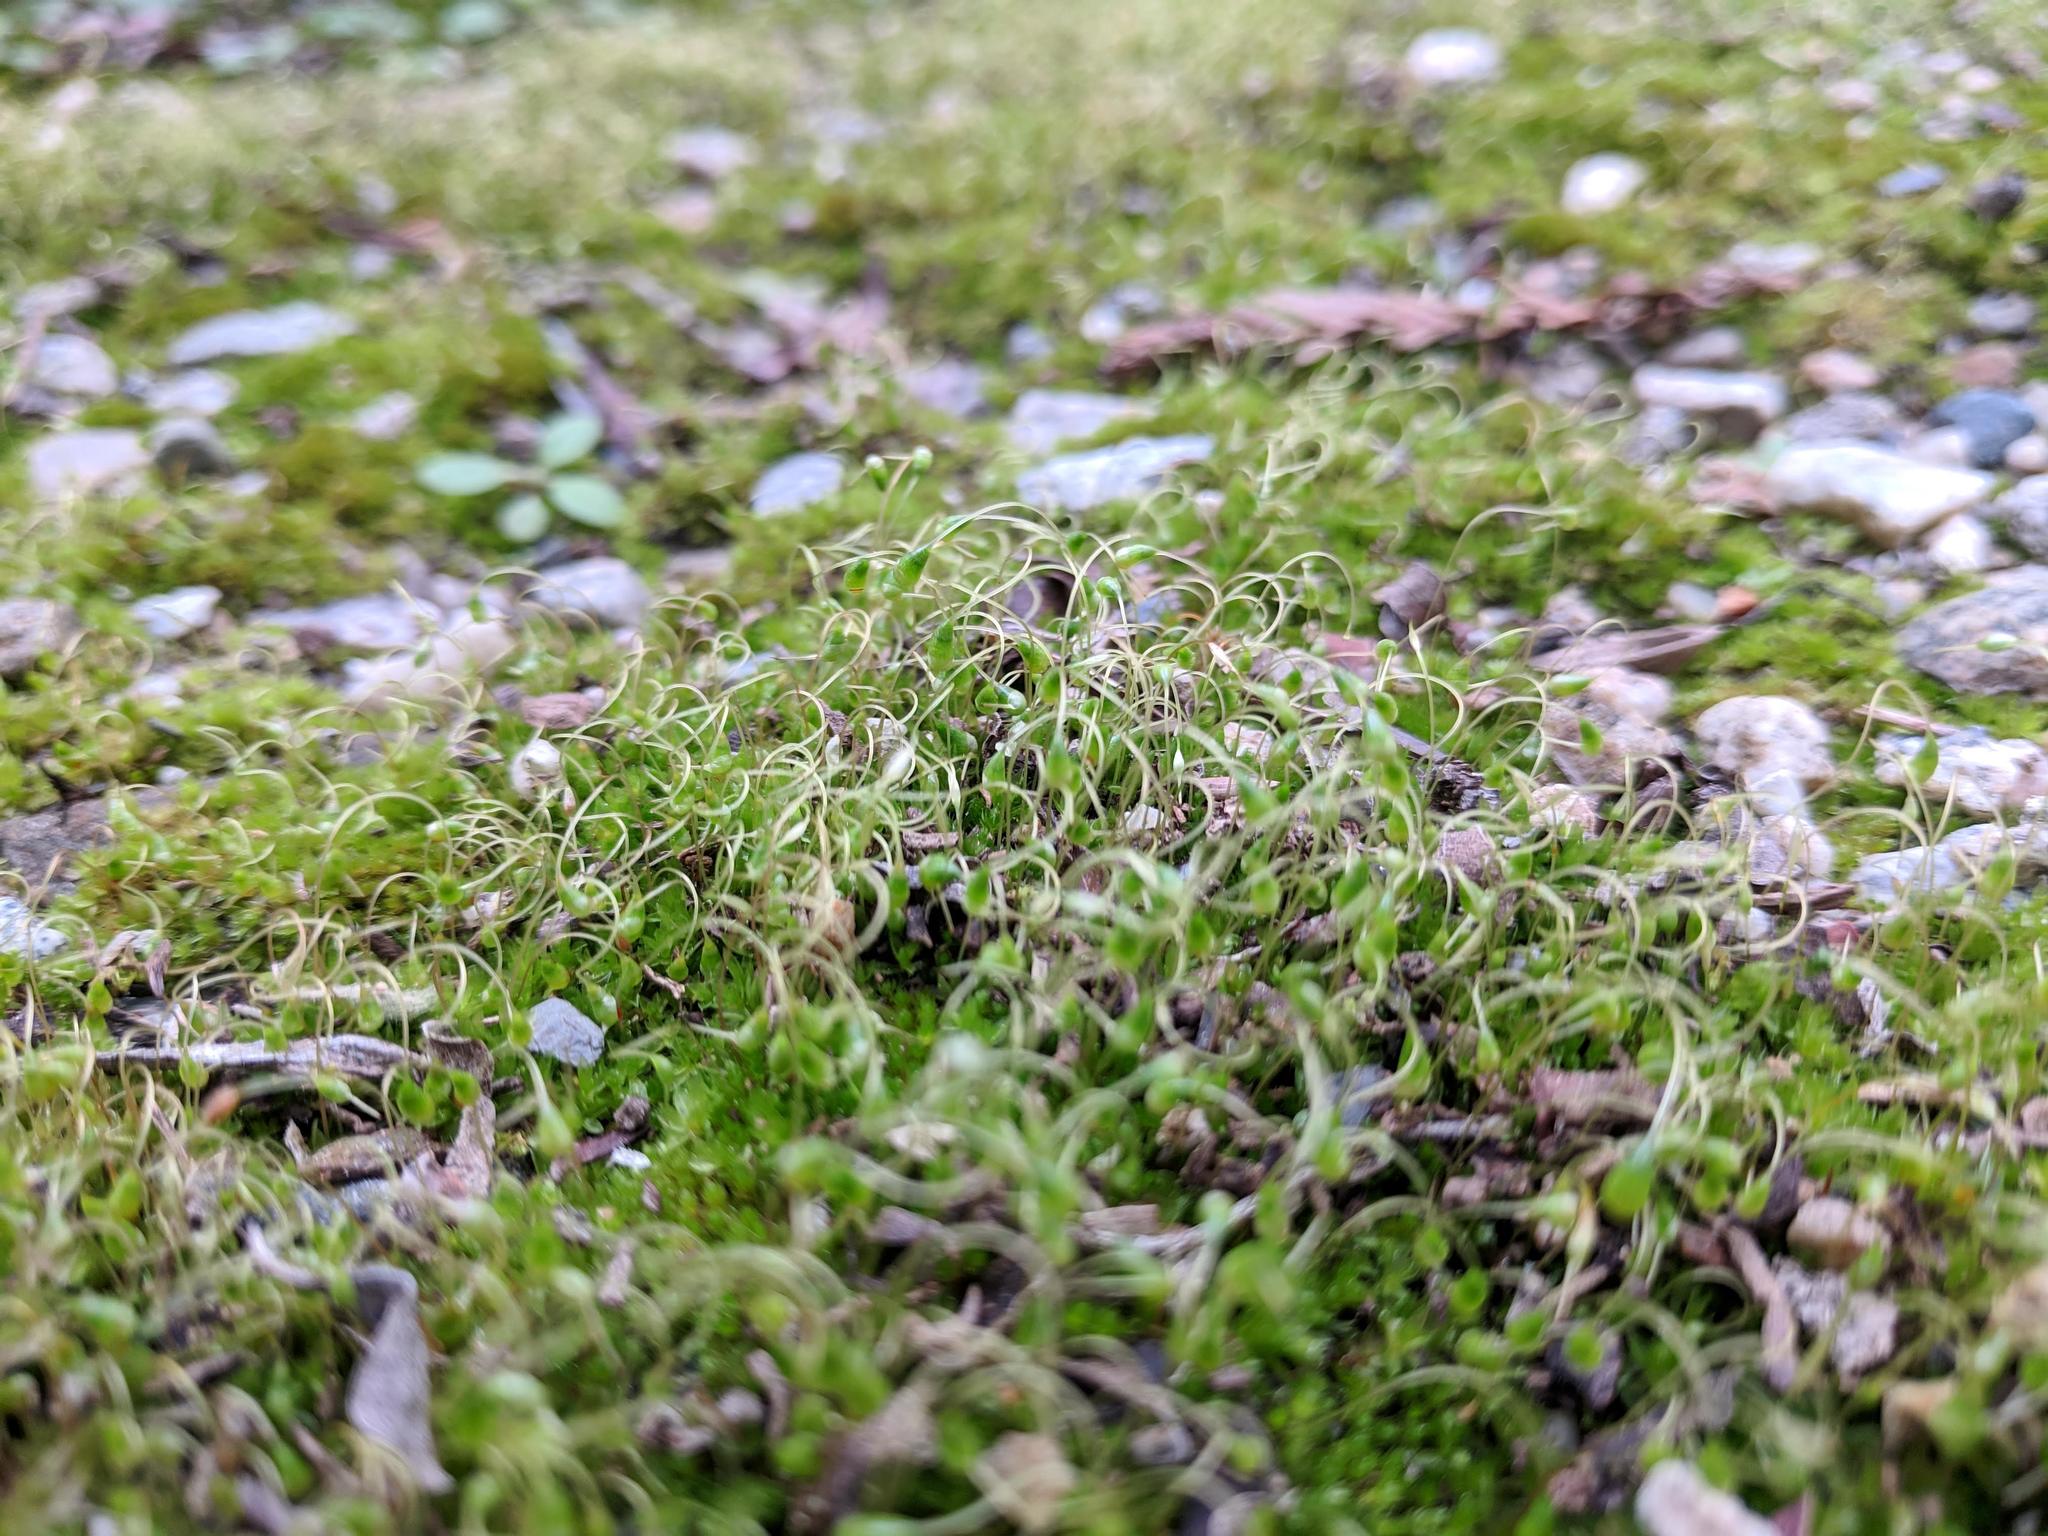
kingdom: Plantae
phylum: Bryophyta
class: Bryopsida
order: Funariales
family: Funariaceae
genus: Funaria
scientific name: Funaria hygrometrica
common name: Common cord moss
